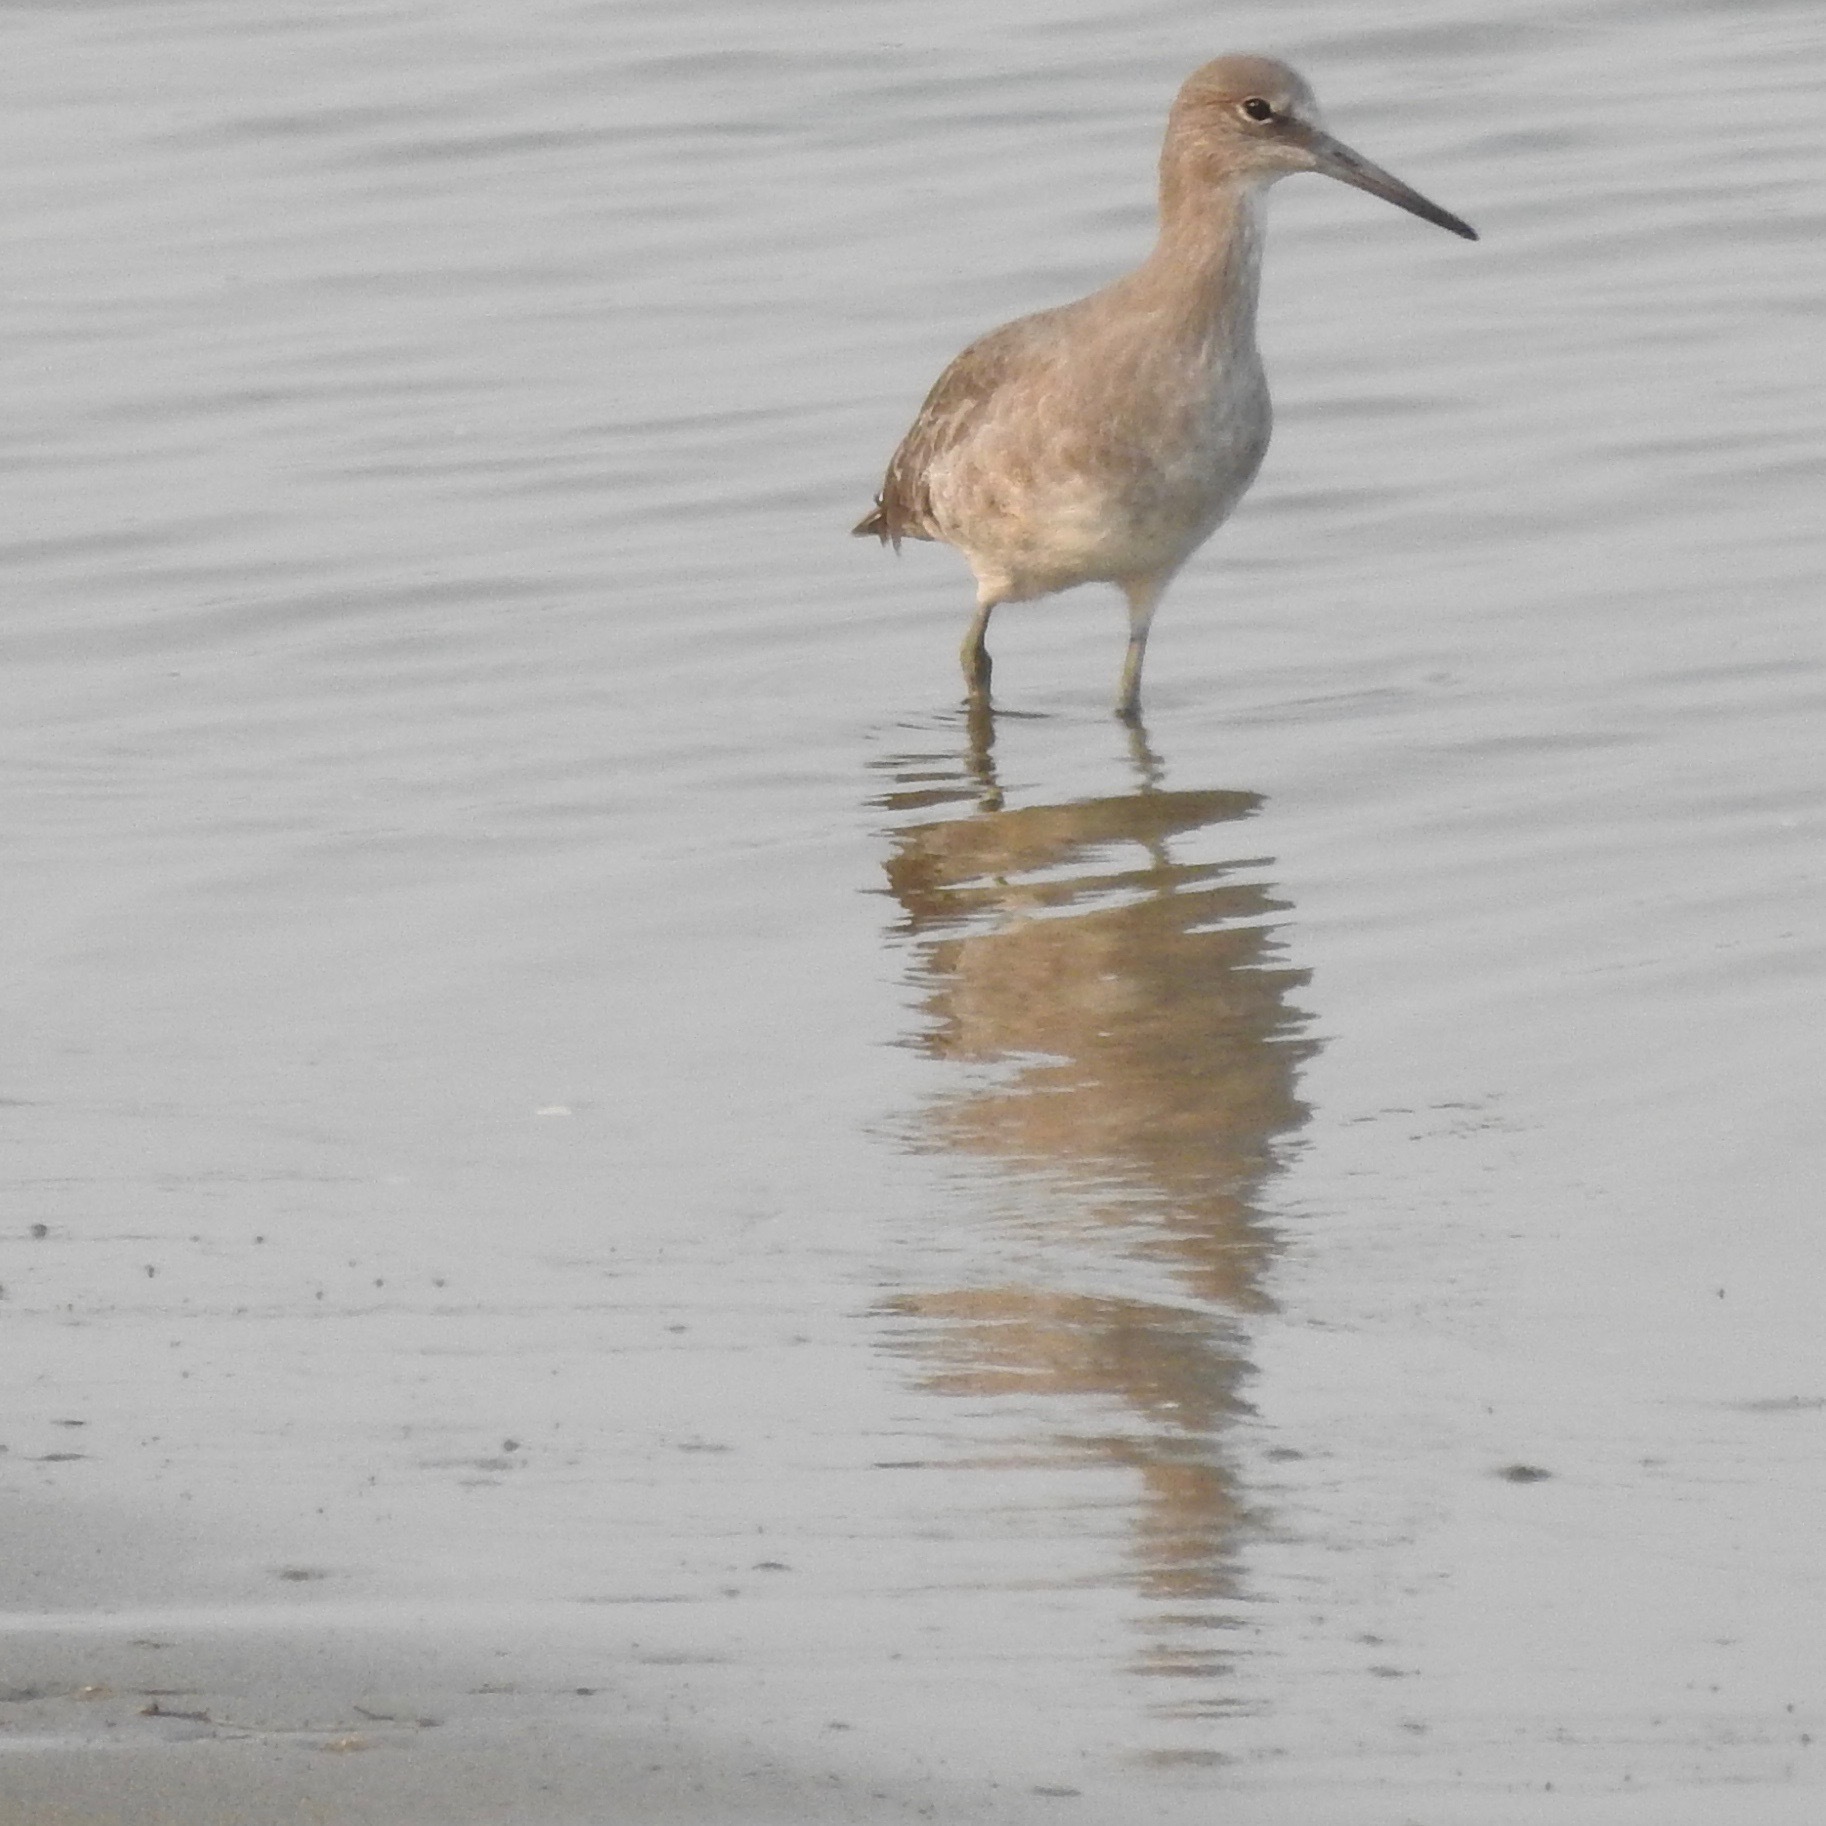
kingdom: Animalia
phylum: Chordata
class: Aves
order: Charadriiformes
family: Scolopacidae
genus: Tringa
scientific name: Tringa semipalmata
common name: Willet
